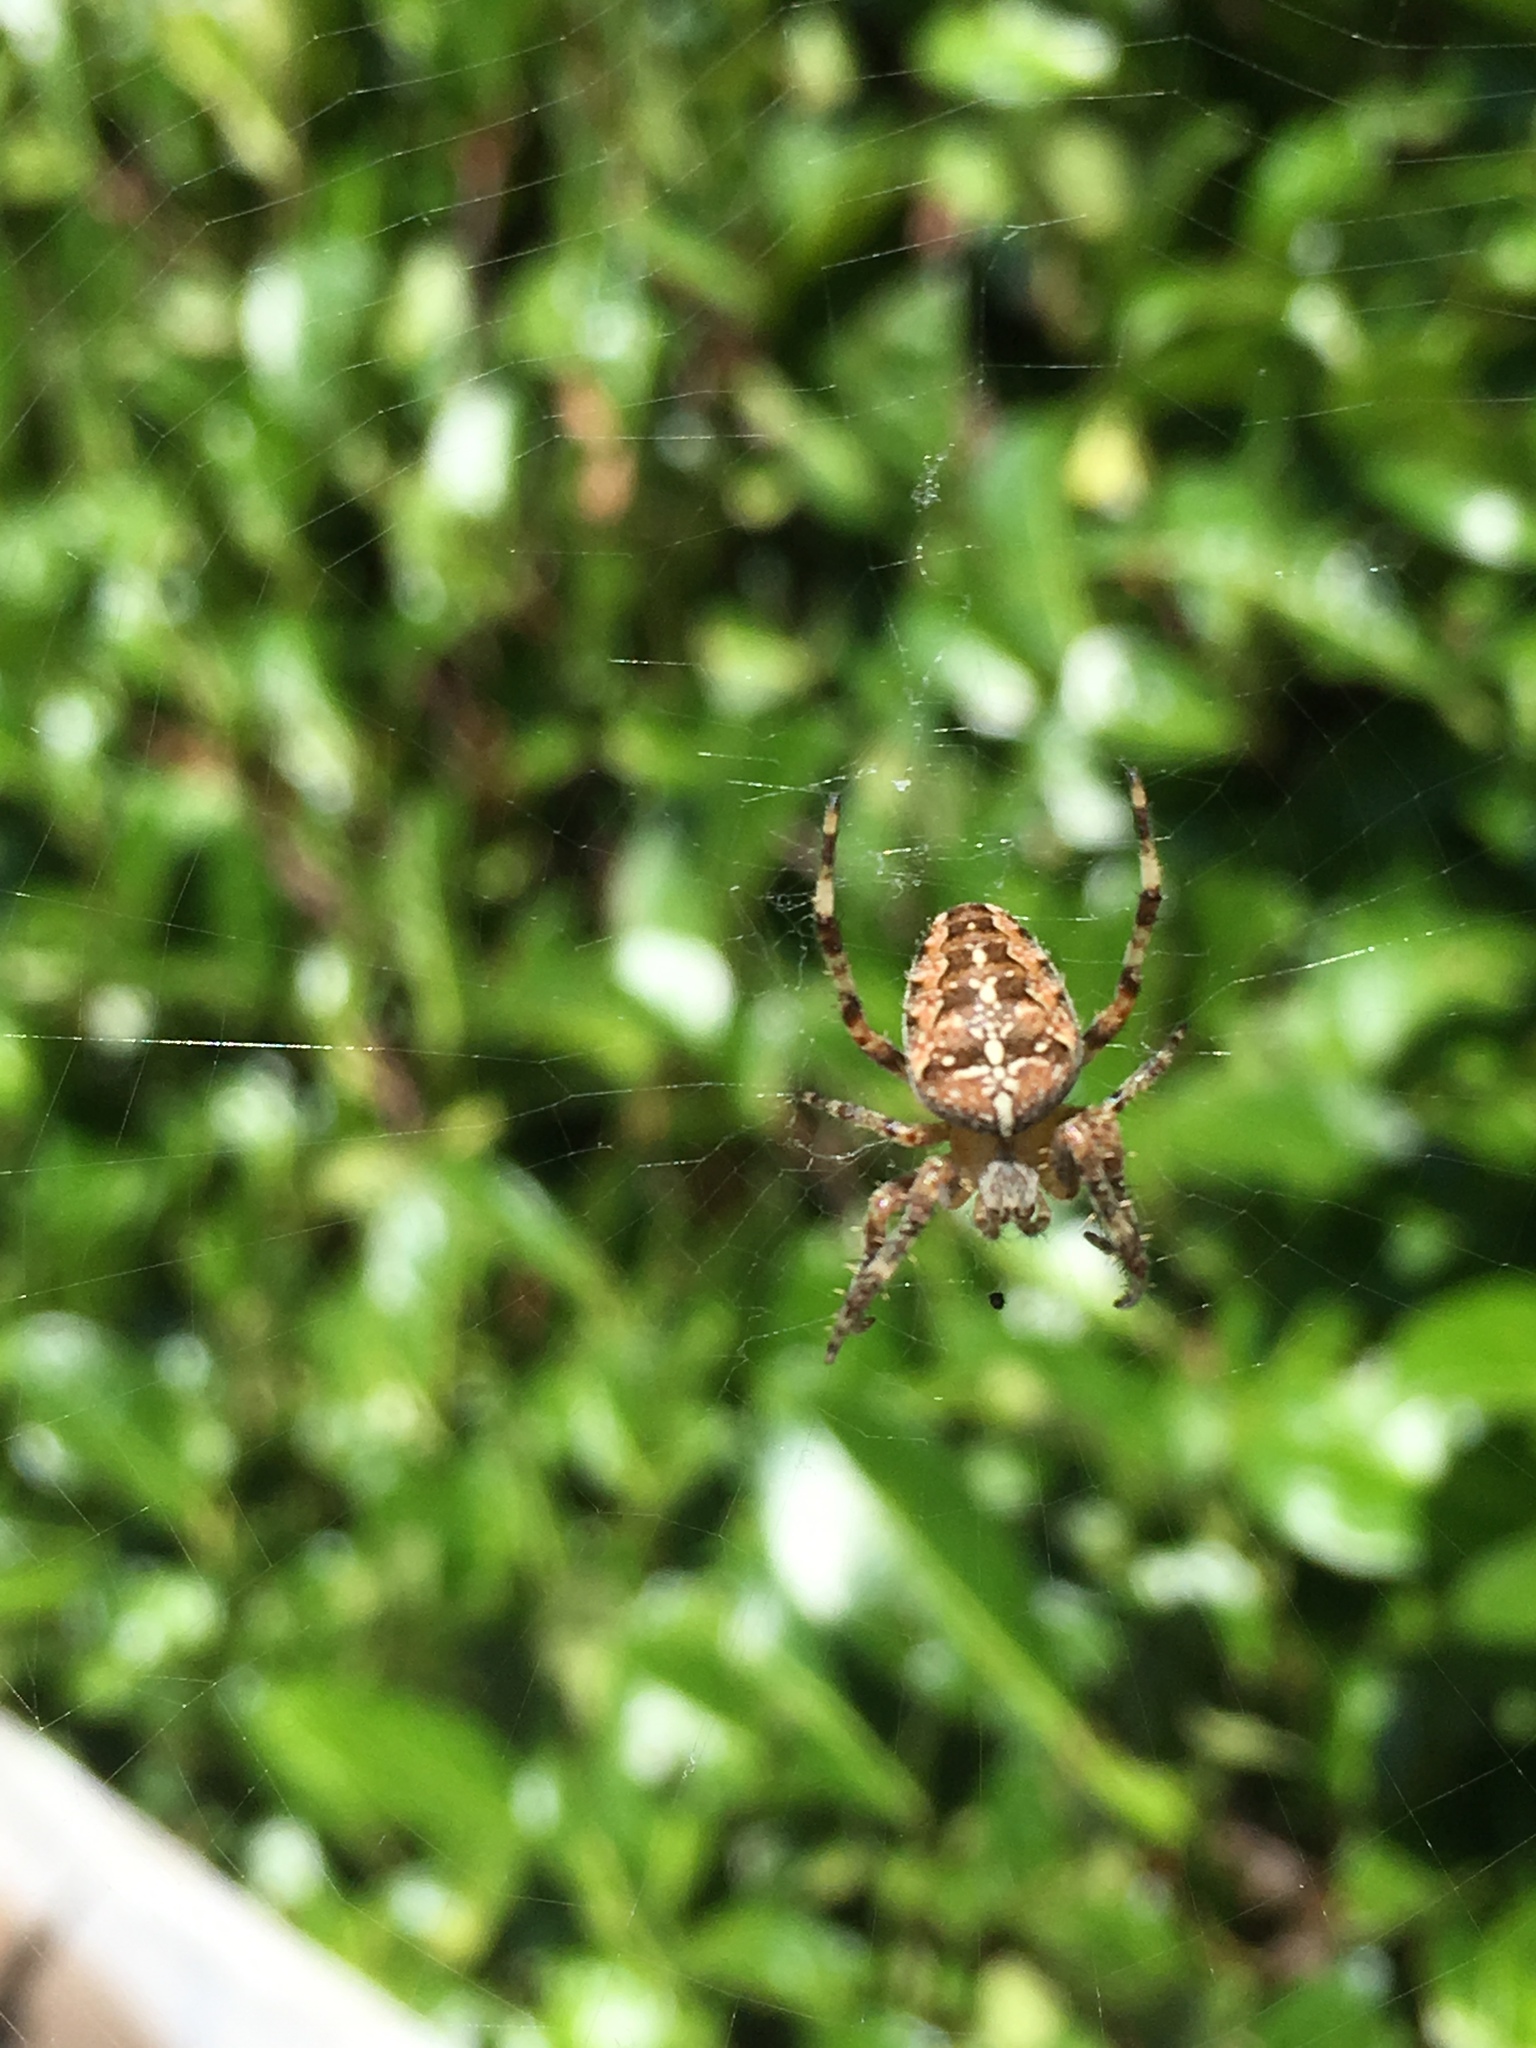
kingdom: Animalia
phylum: Arthropoda
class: Arachnida
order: Araneae
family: Araneidae
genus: Araneus
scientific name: Araneus diadematus
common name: Cross orbweaver
